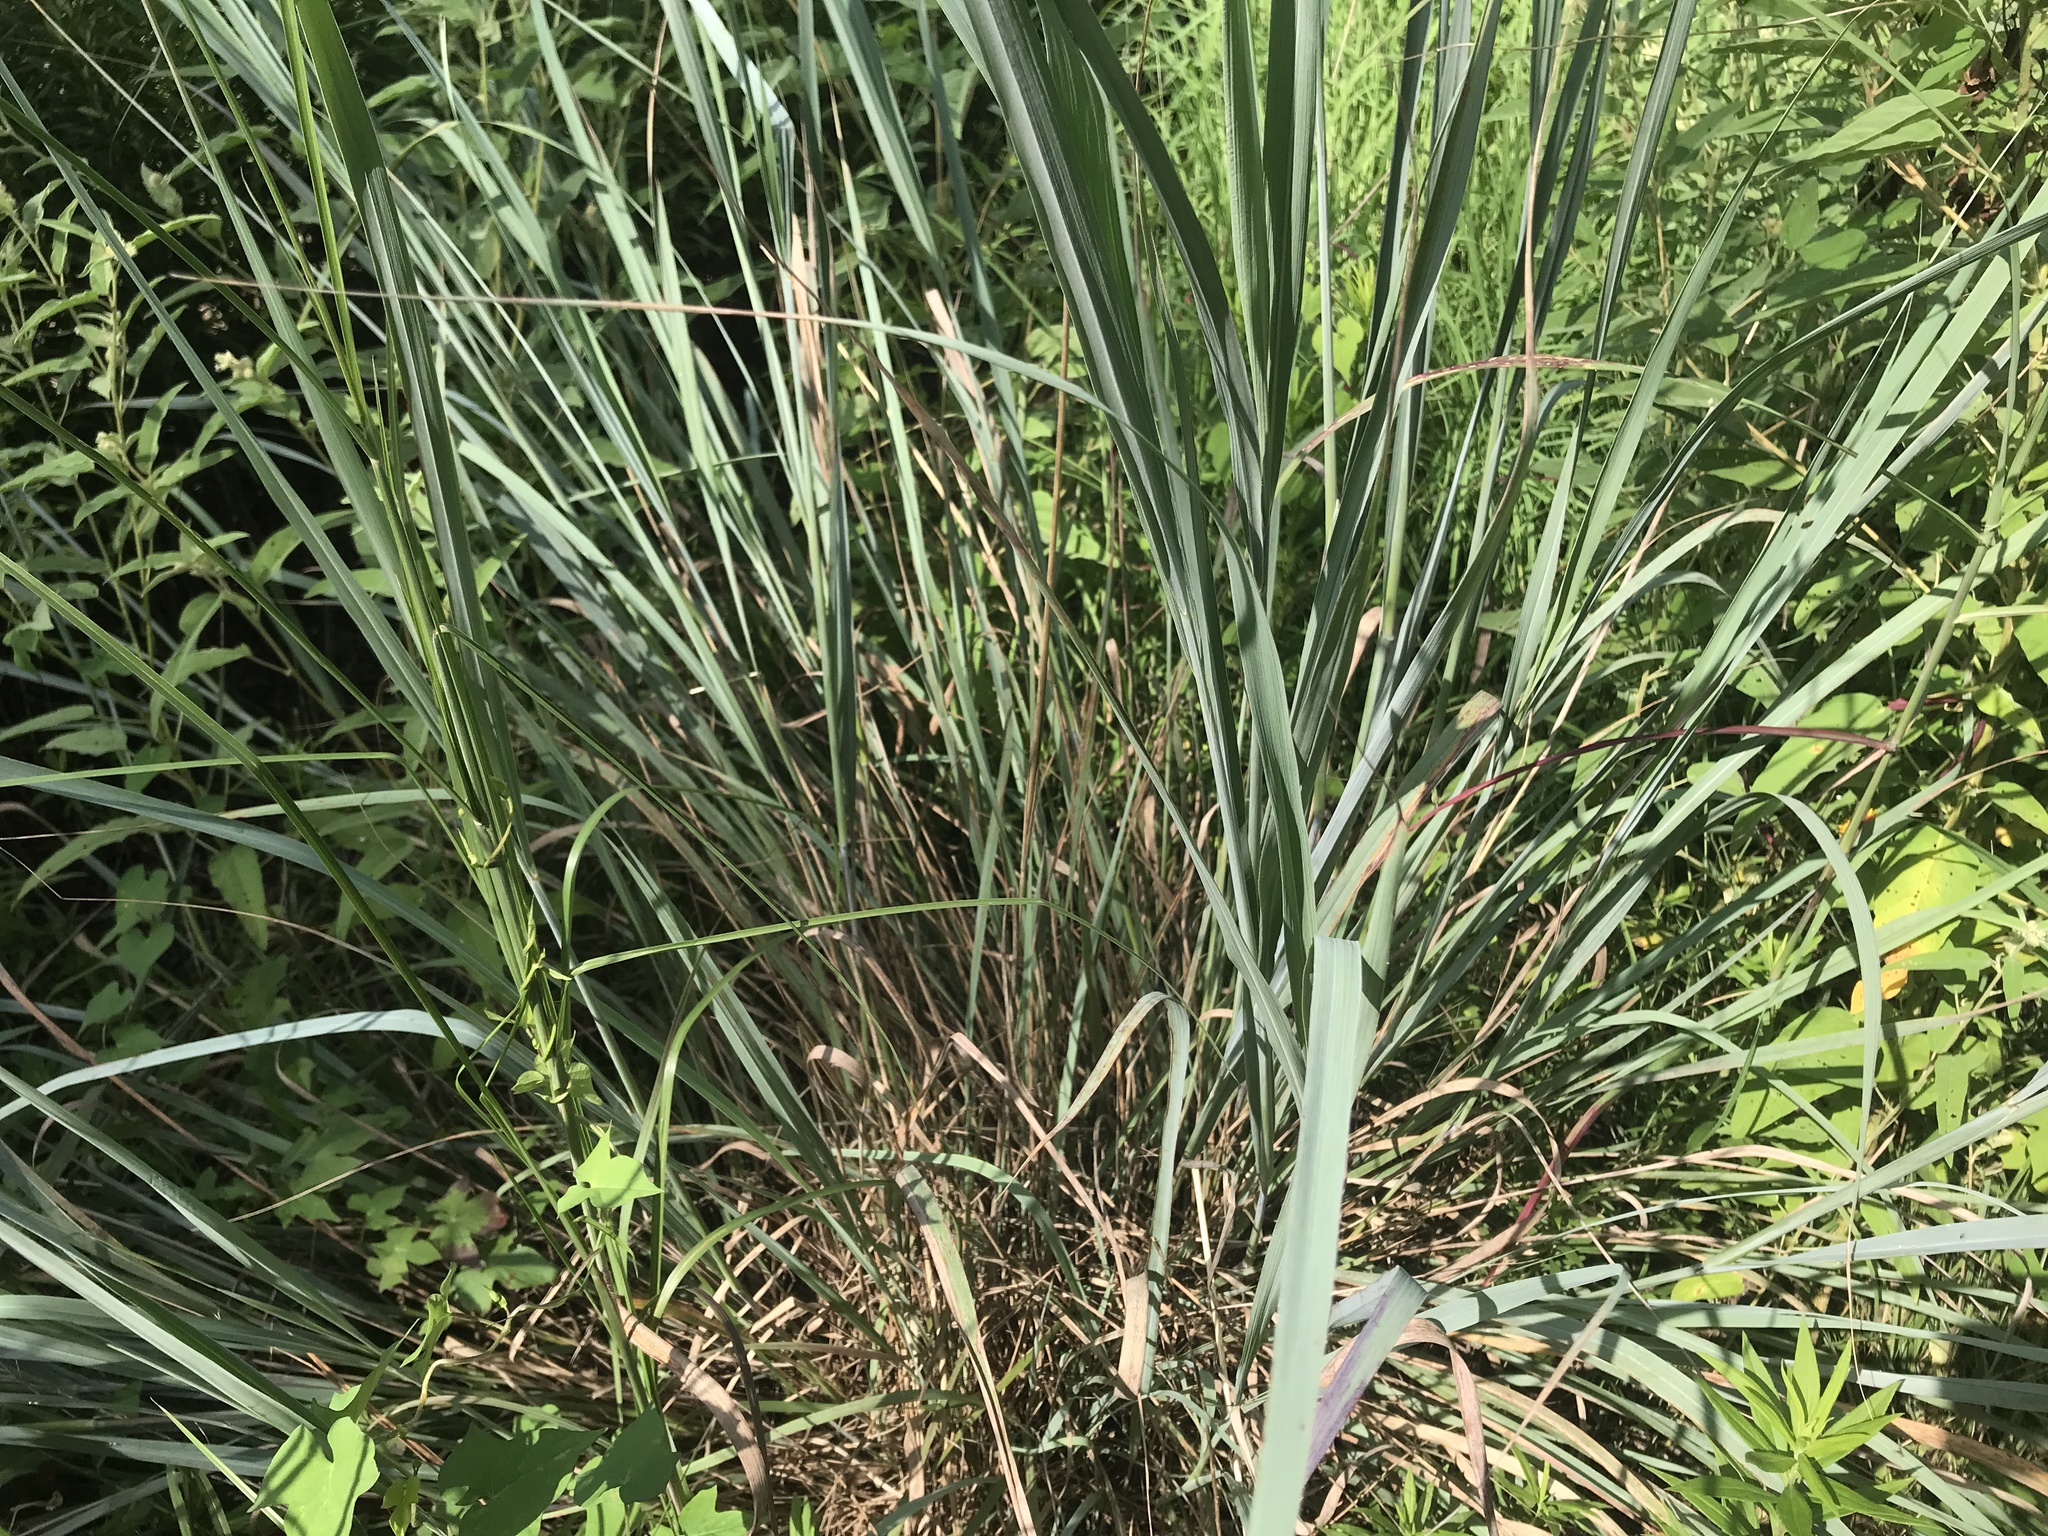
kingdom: Plantae
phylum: Tracheophyta
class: Liliopsida
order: Poales
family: Poaceae
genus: Sorghastrum
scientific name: Sorghastrum nutans
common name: Indian grass
